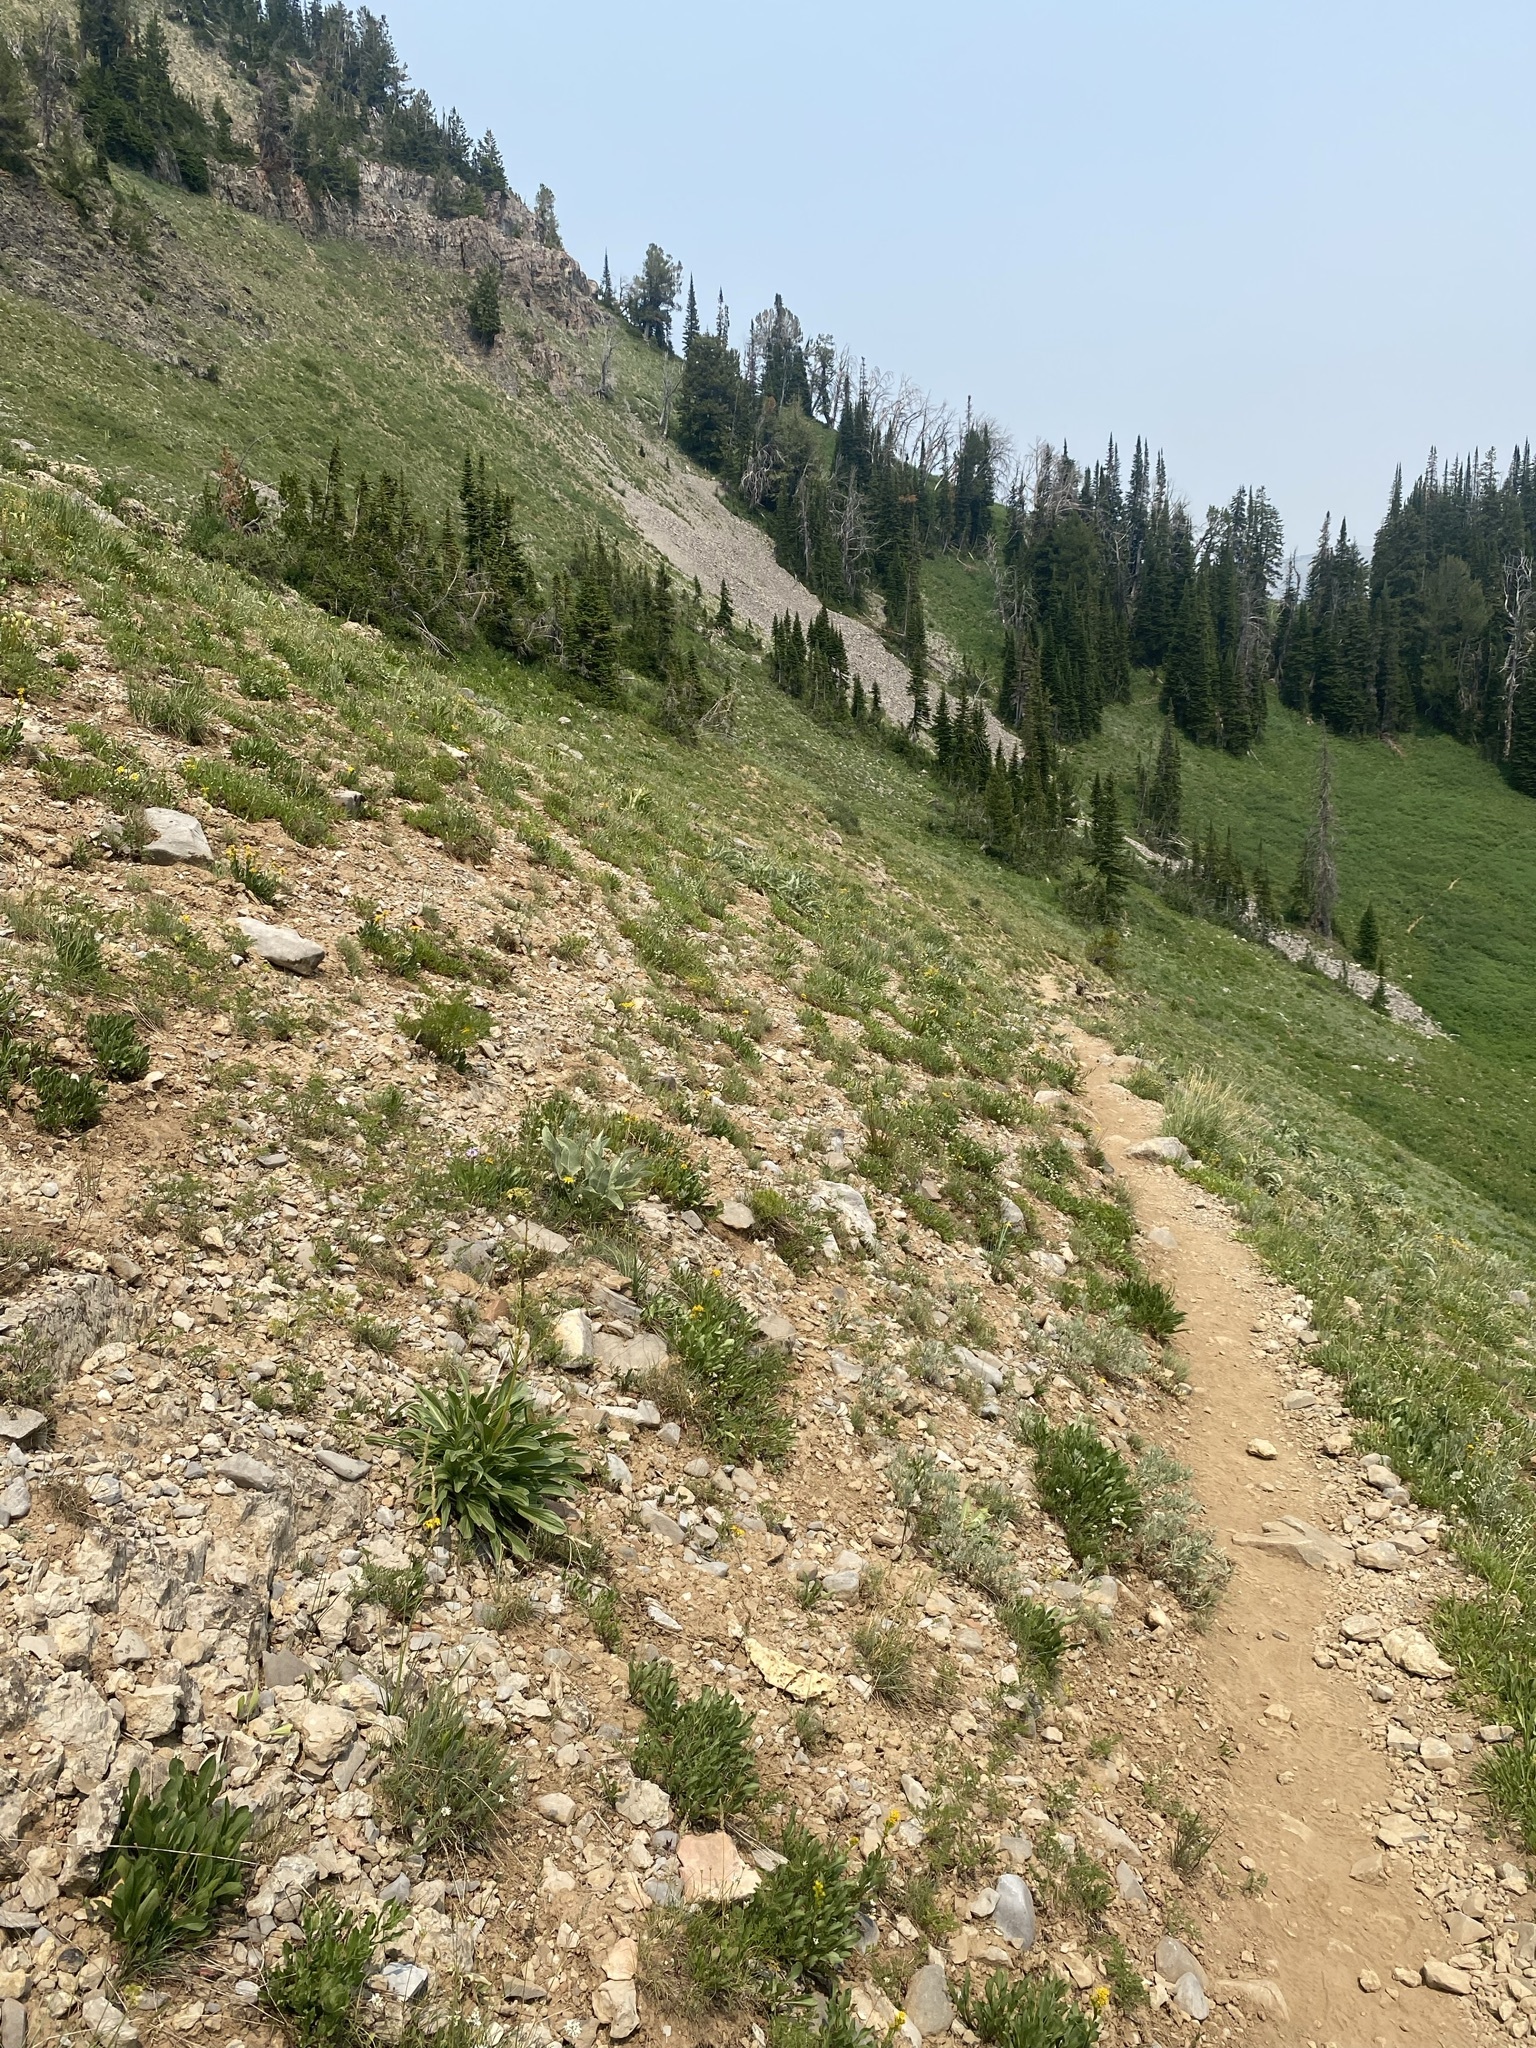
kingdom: Plantae
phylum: Tracheophyta
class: Magnoliopsida
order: Apiales
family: Apiaceae
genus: Pteryxia
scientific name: Pteryxia terebinthina
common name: Turpentine wavewing
